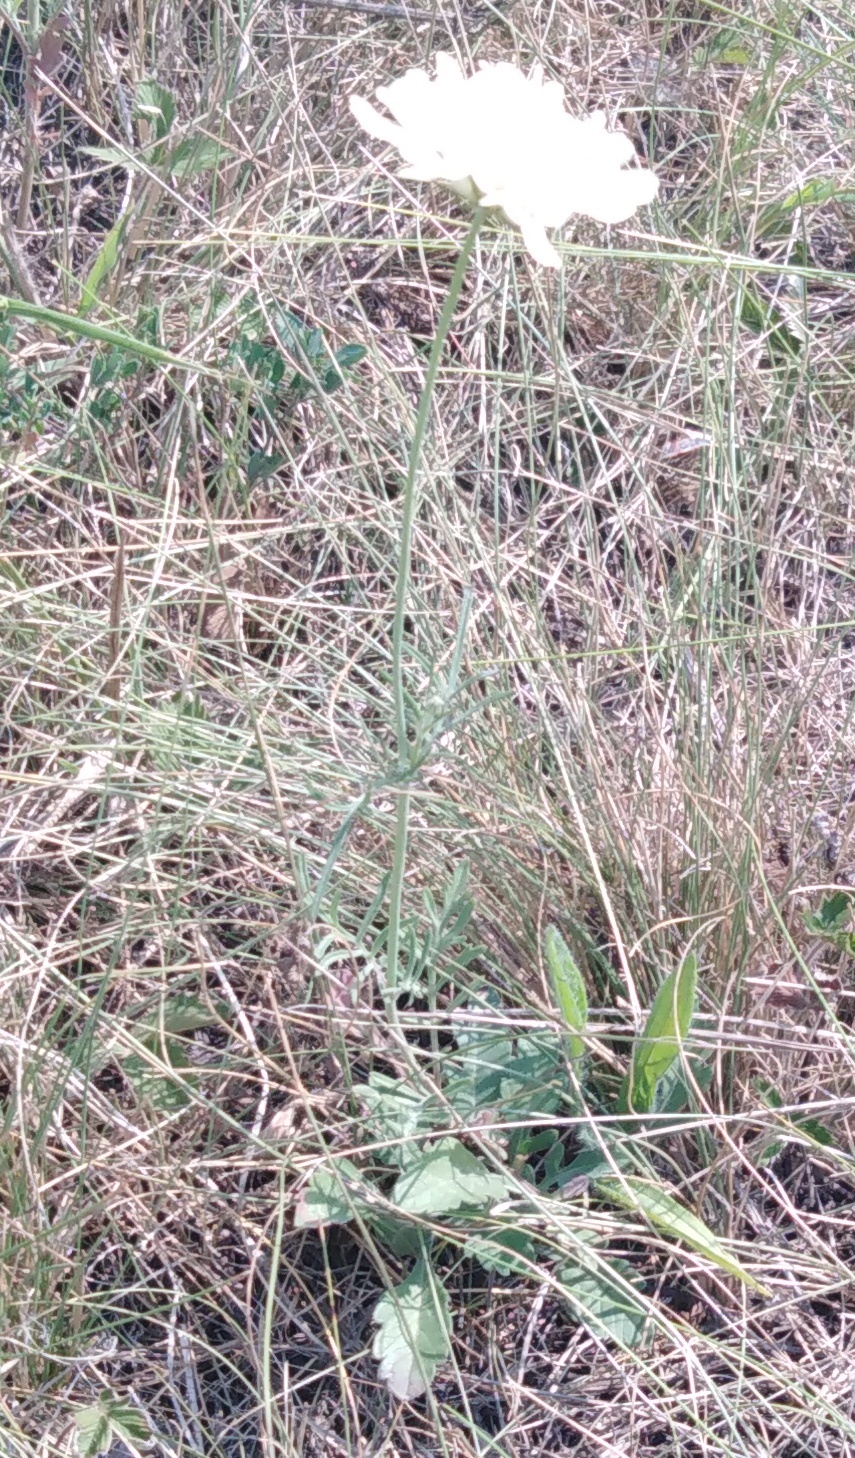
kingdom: Plantae
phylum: Tracheophyta
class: Magnoliopsida
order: Dipsacales
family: Caprifoliaceae
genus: Scabiosa
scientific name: Scabiosa ochroleuca
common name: Cream pincushions
